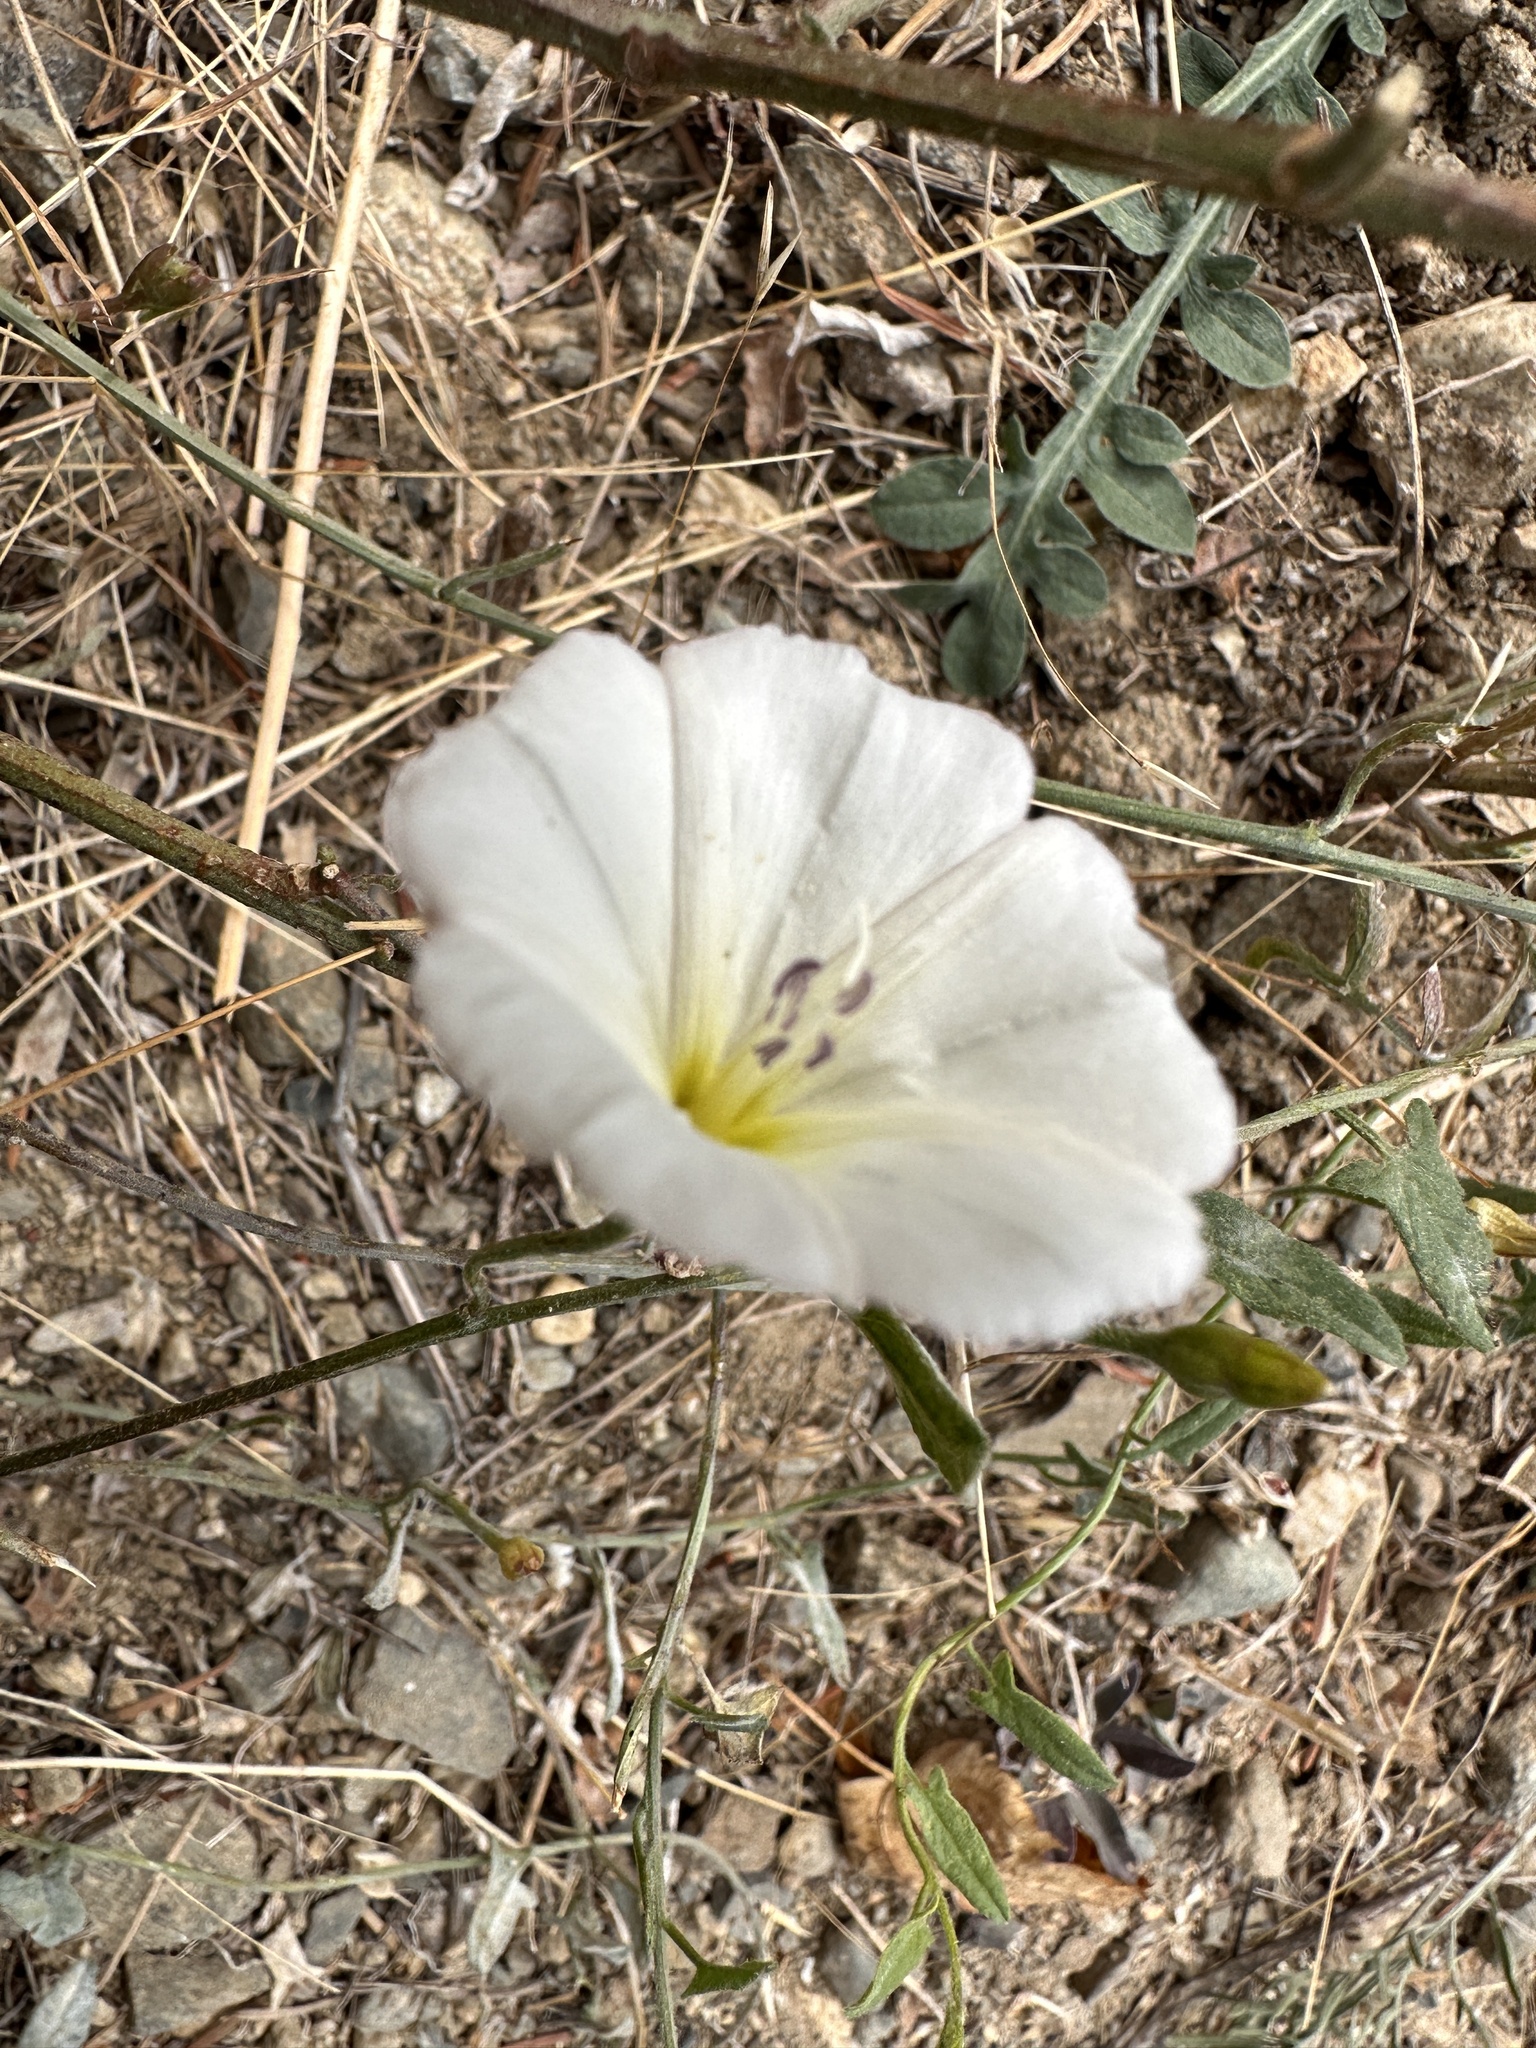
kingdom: Plantae
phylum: Tracheophyta
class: Magnoliopsida
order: Solanales
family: Convolvulaceae
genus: Convolvulus
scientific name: Convolvulus arvensis
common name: Field bindweed
